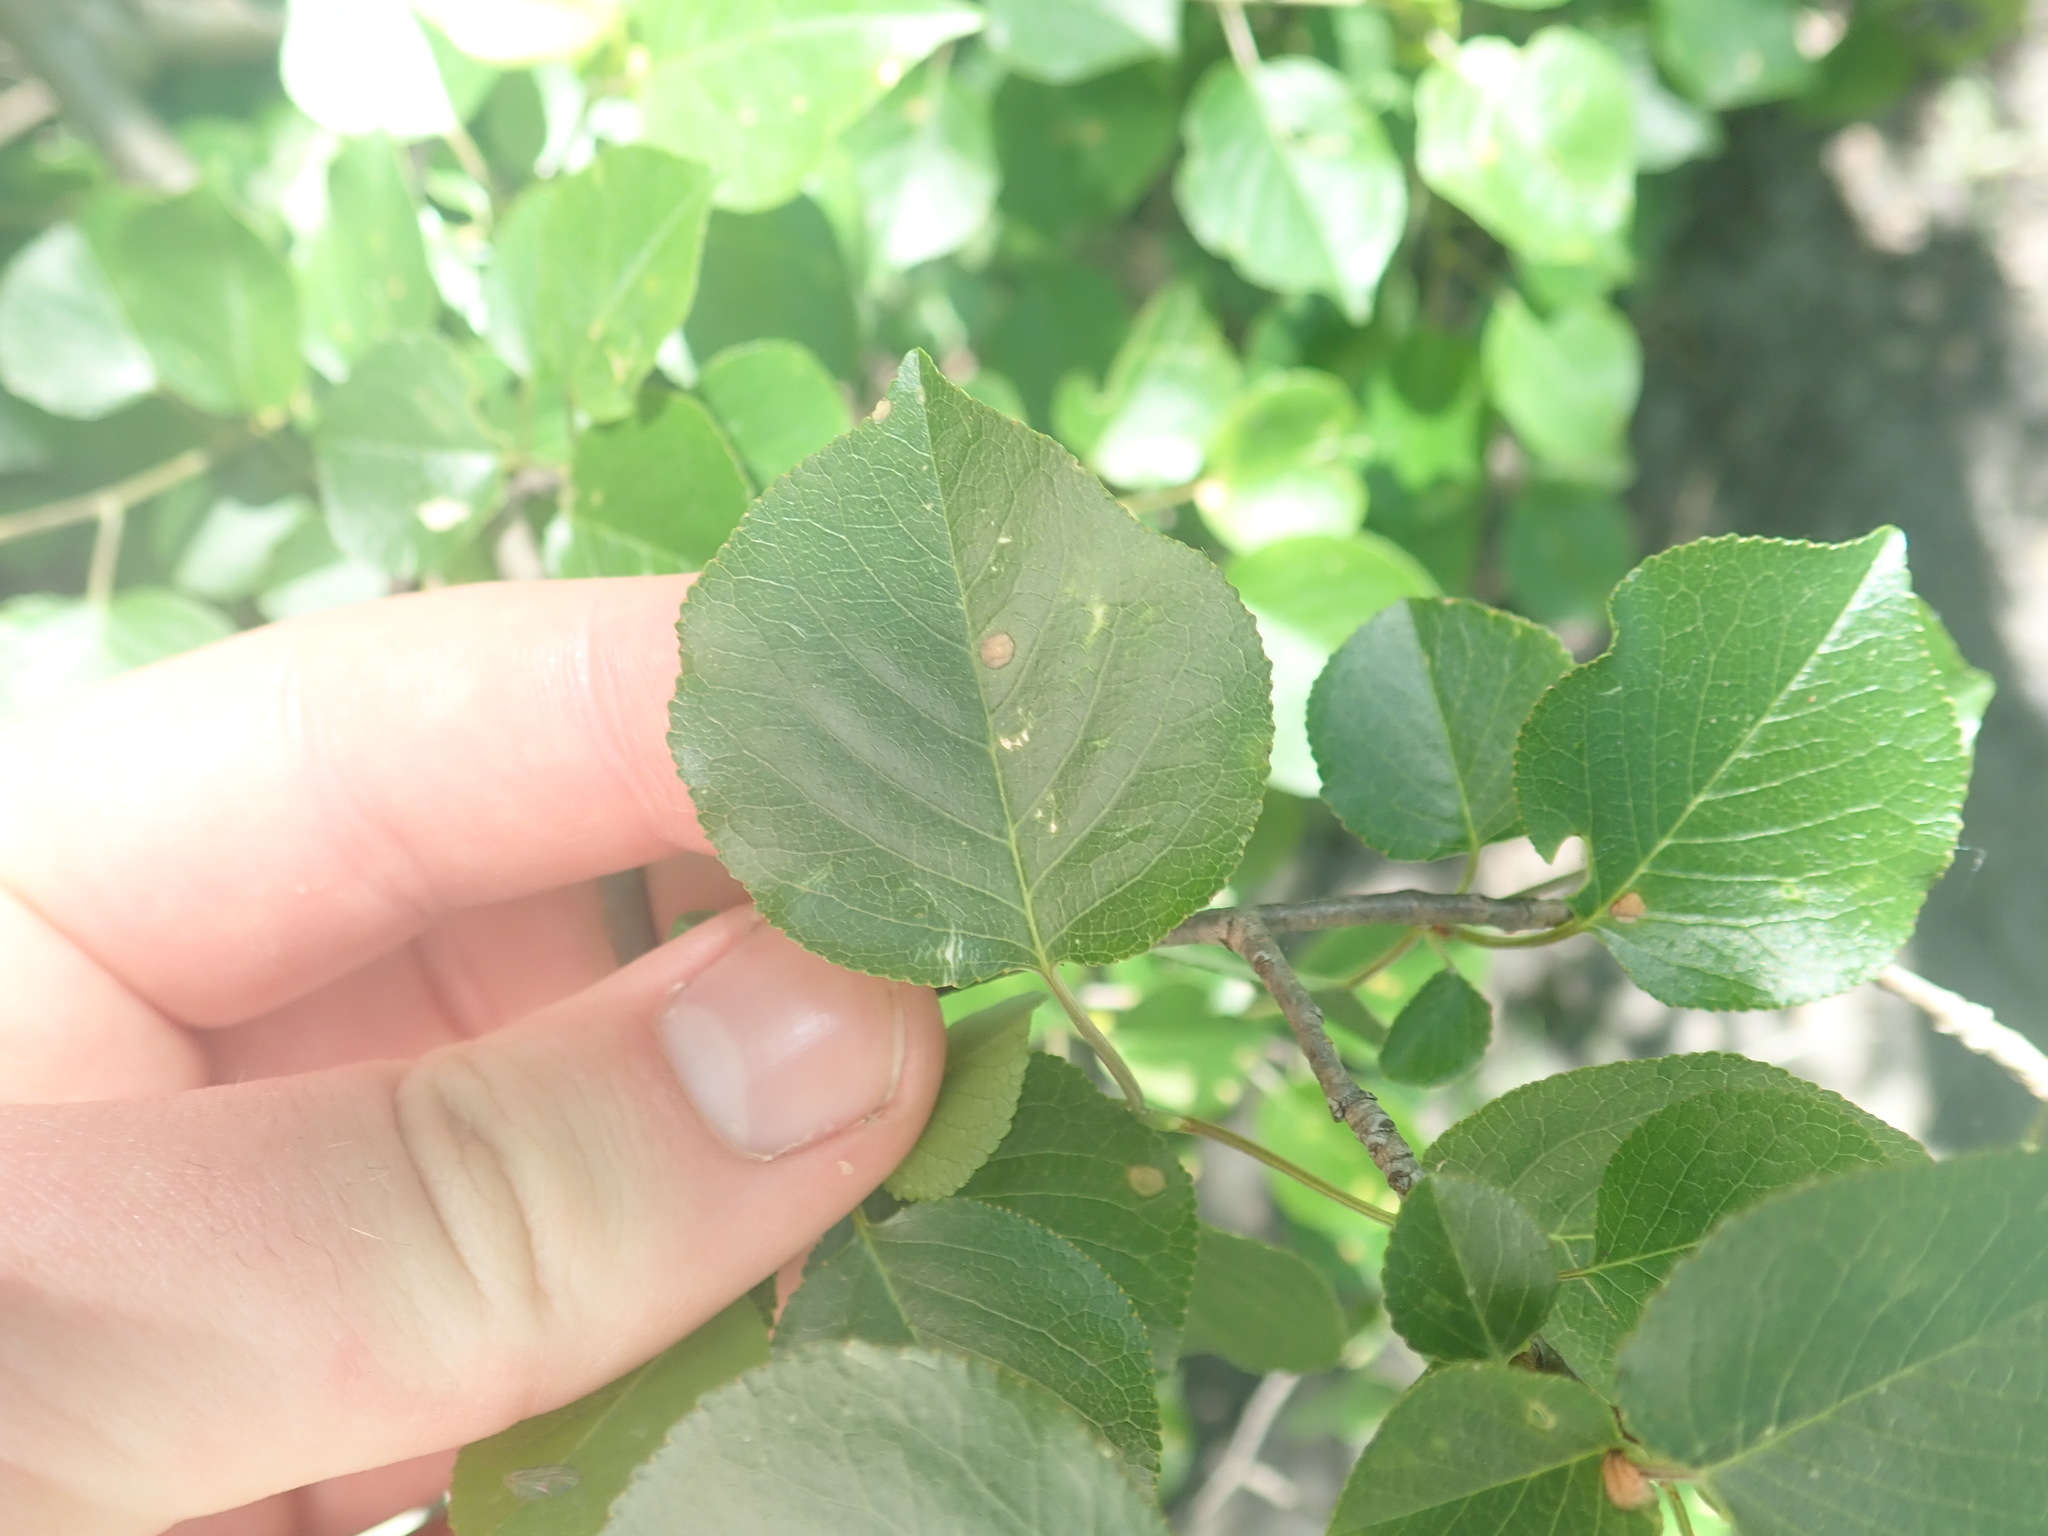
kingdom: Plantae
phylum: Tracheophyta
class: Magnoliopsida
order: Rosales
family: Rosaceae
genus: Prunus
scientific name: Prunus mahaleb
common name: Mahaleb cherry
